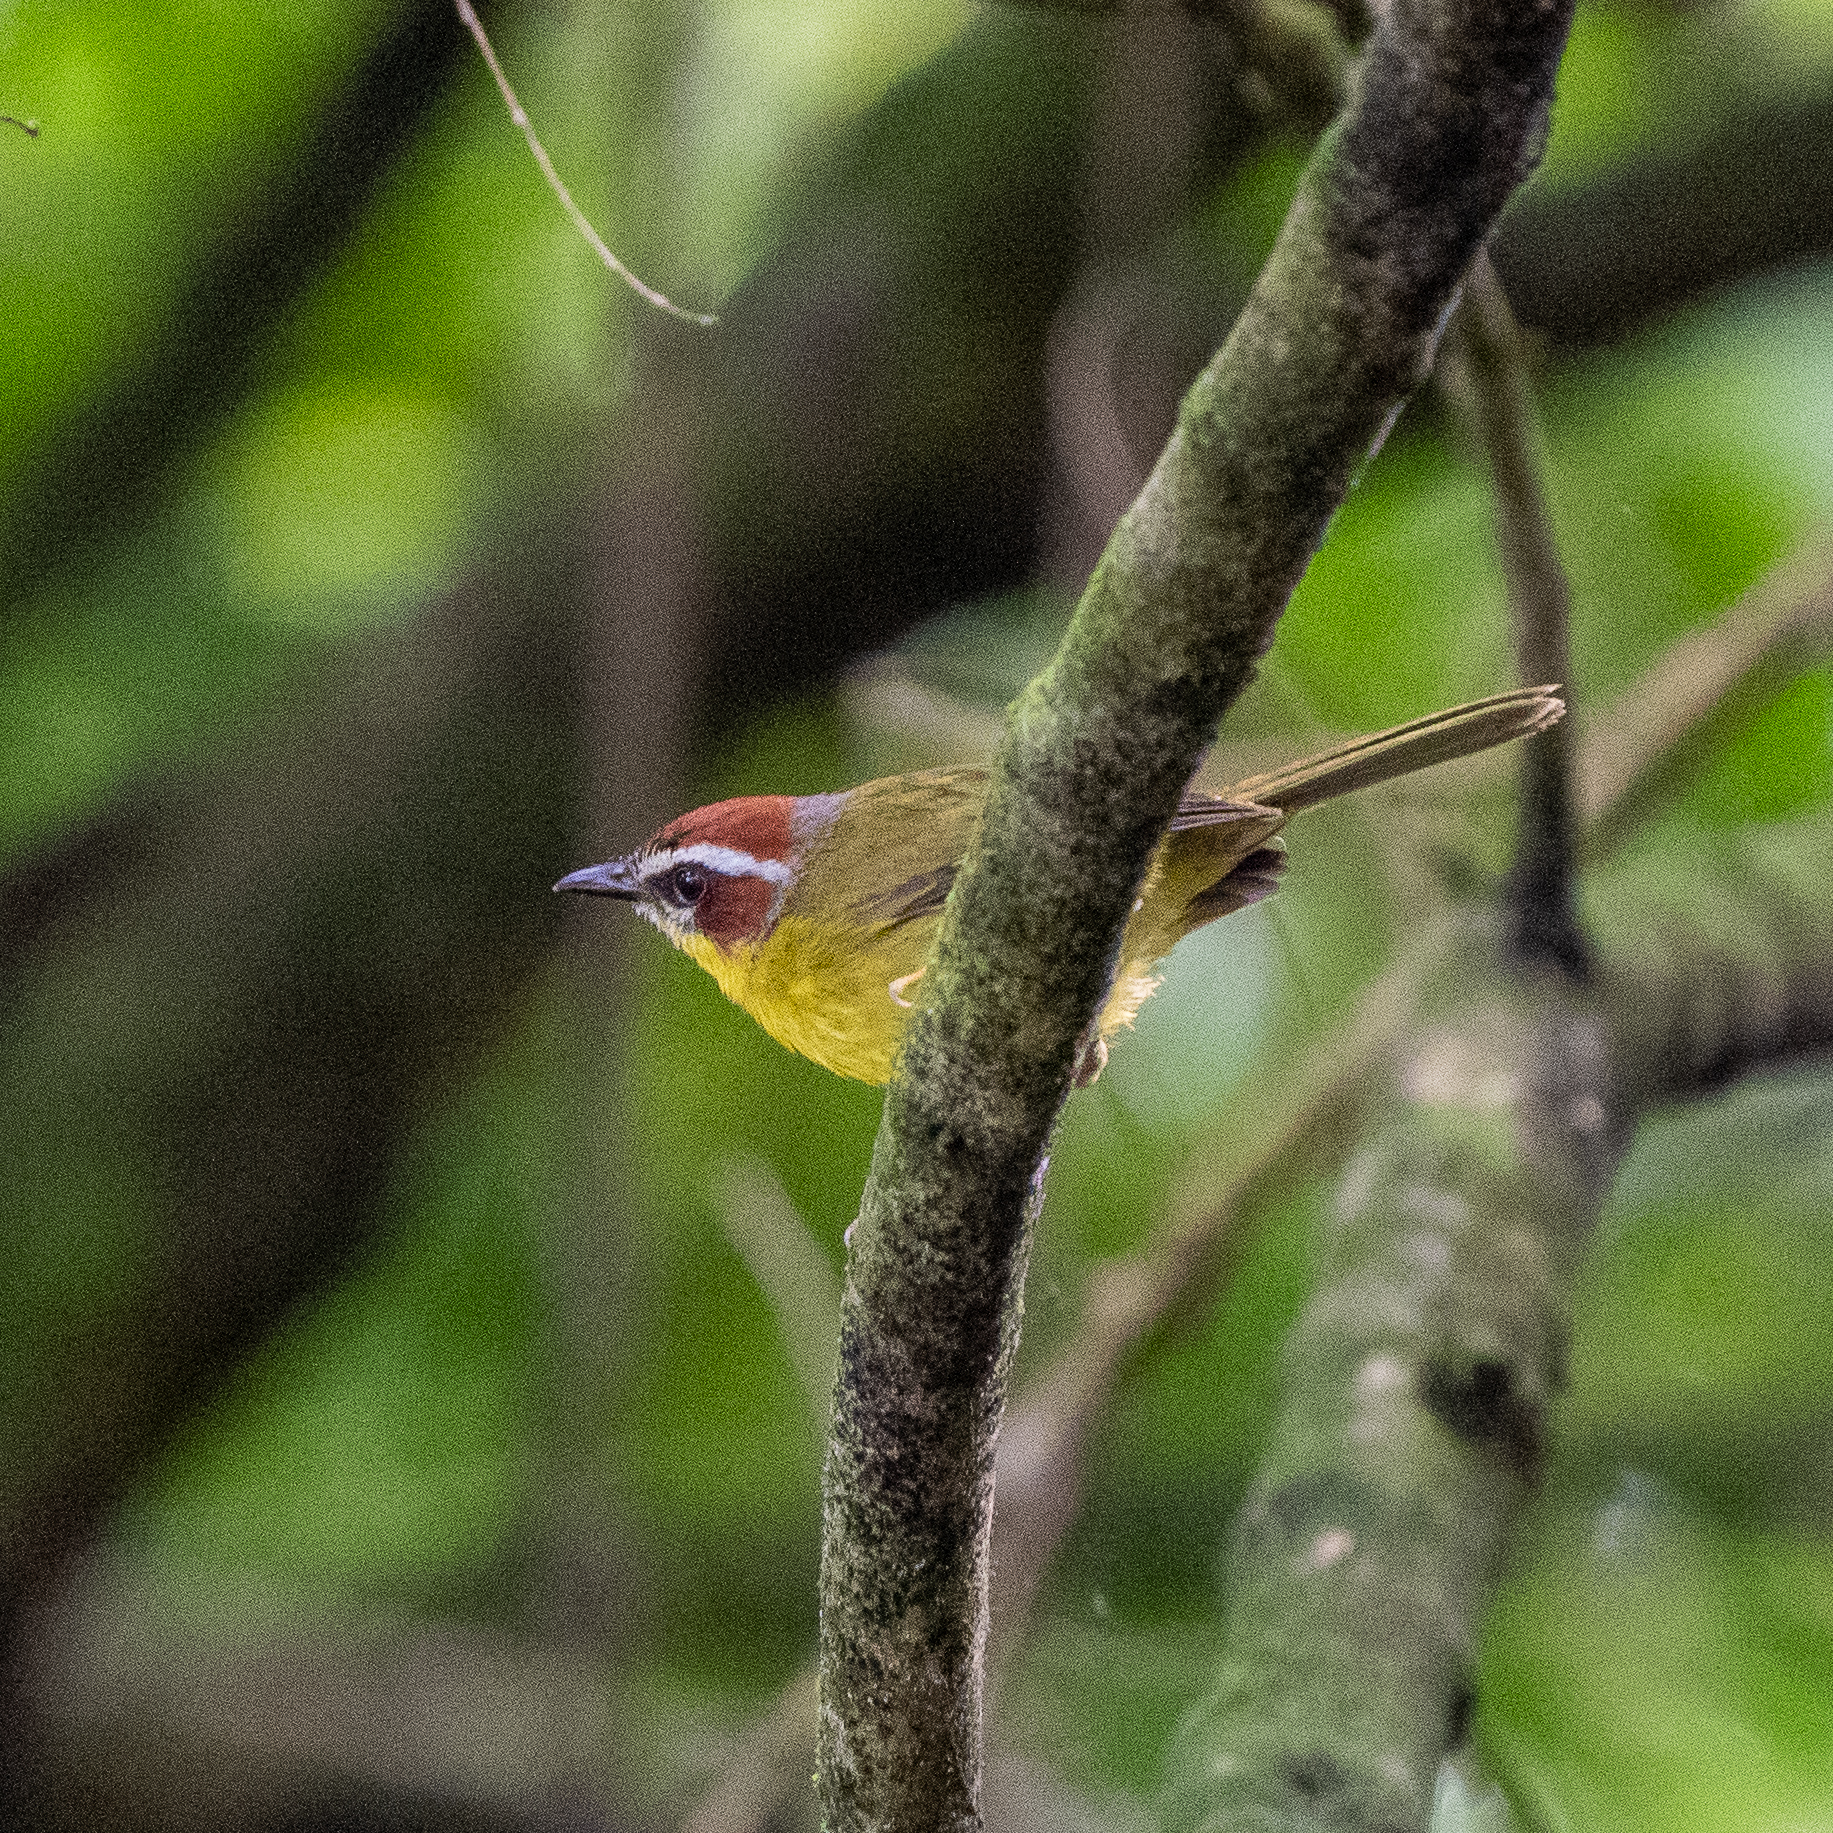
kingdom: Animalia
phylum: Chordata
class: Aves
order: Passeriformes
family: Parulidae
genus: Basileuterus
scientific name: Basileuterus rufifrons
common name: Rufous-capped warbler
